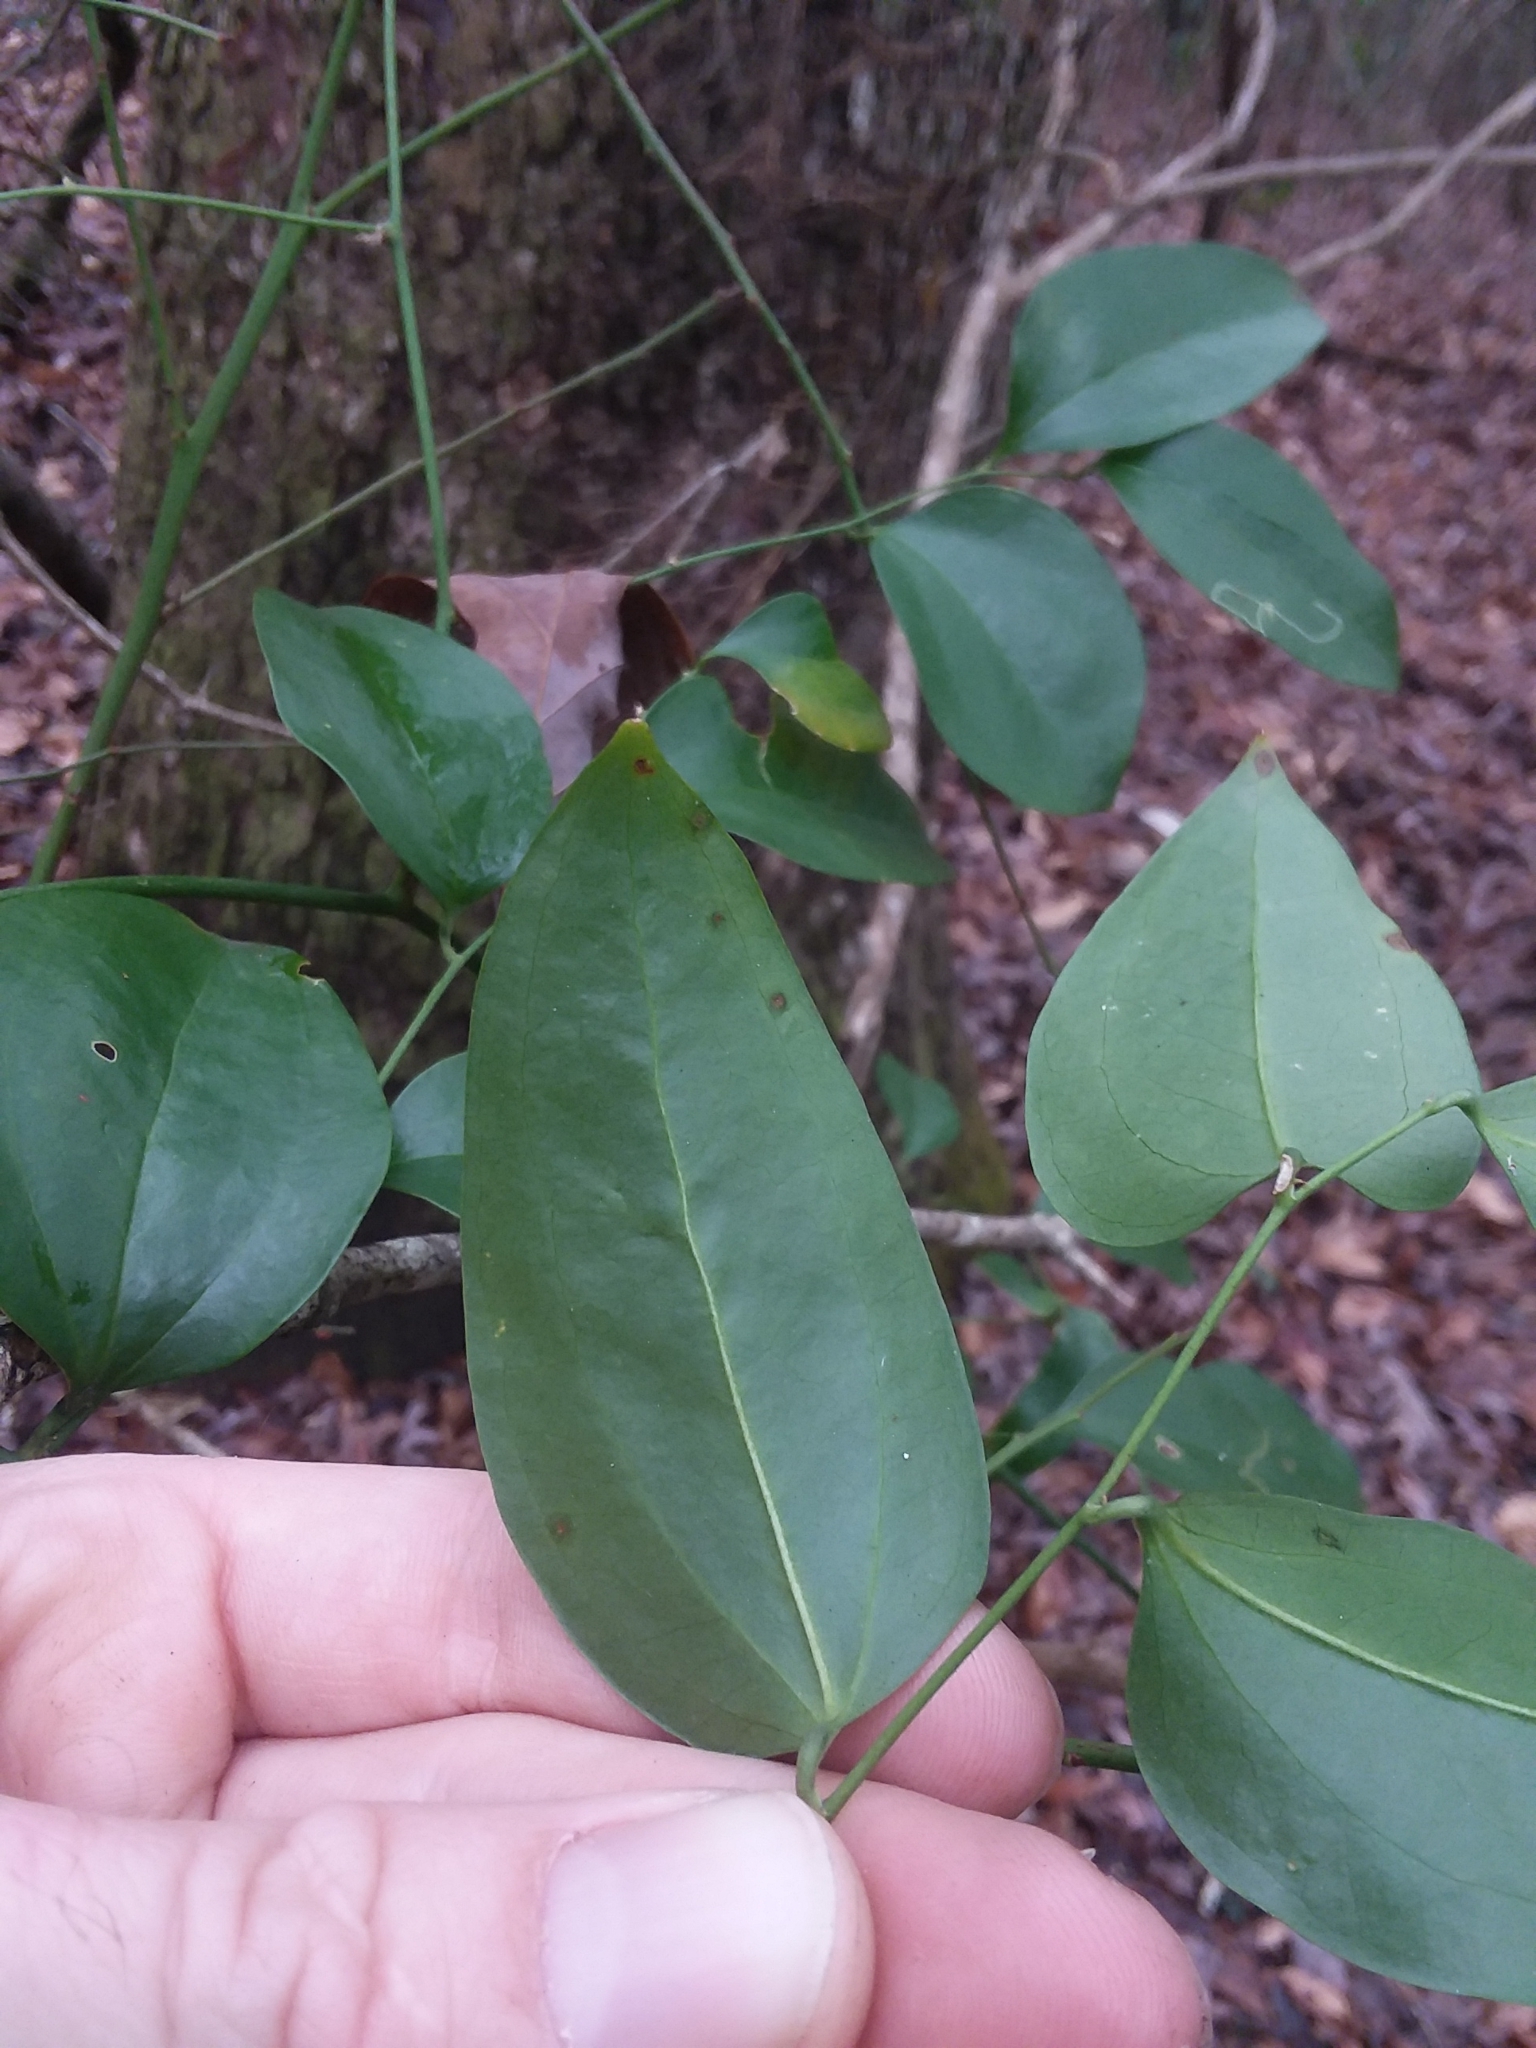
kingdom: Plantae
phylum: Tracheophyta
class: Liliopsida
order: Liliales
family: Smilacaceae
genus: Smilax
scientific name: Smilax maritima
